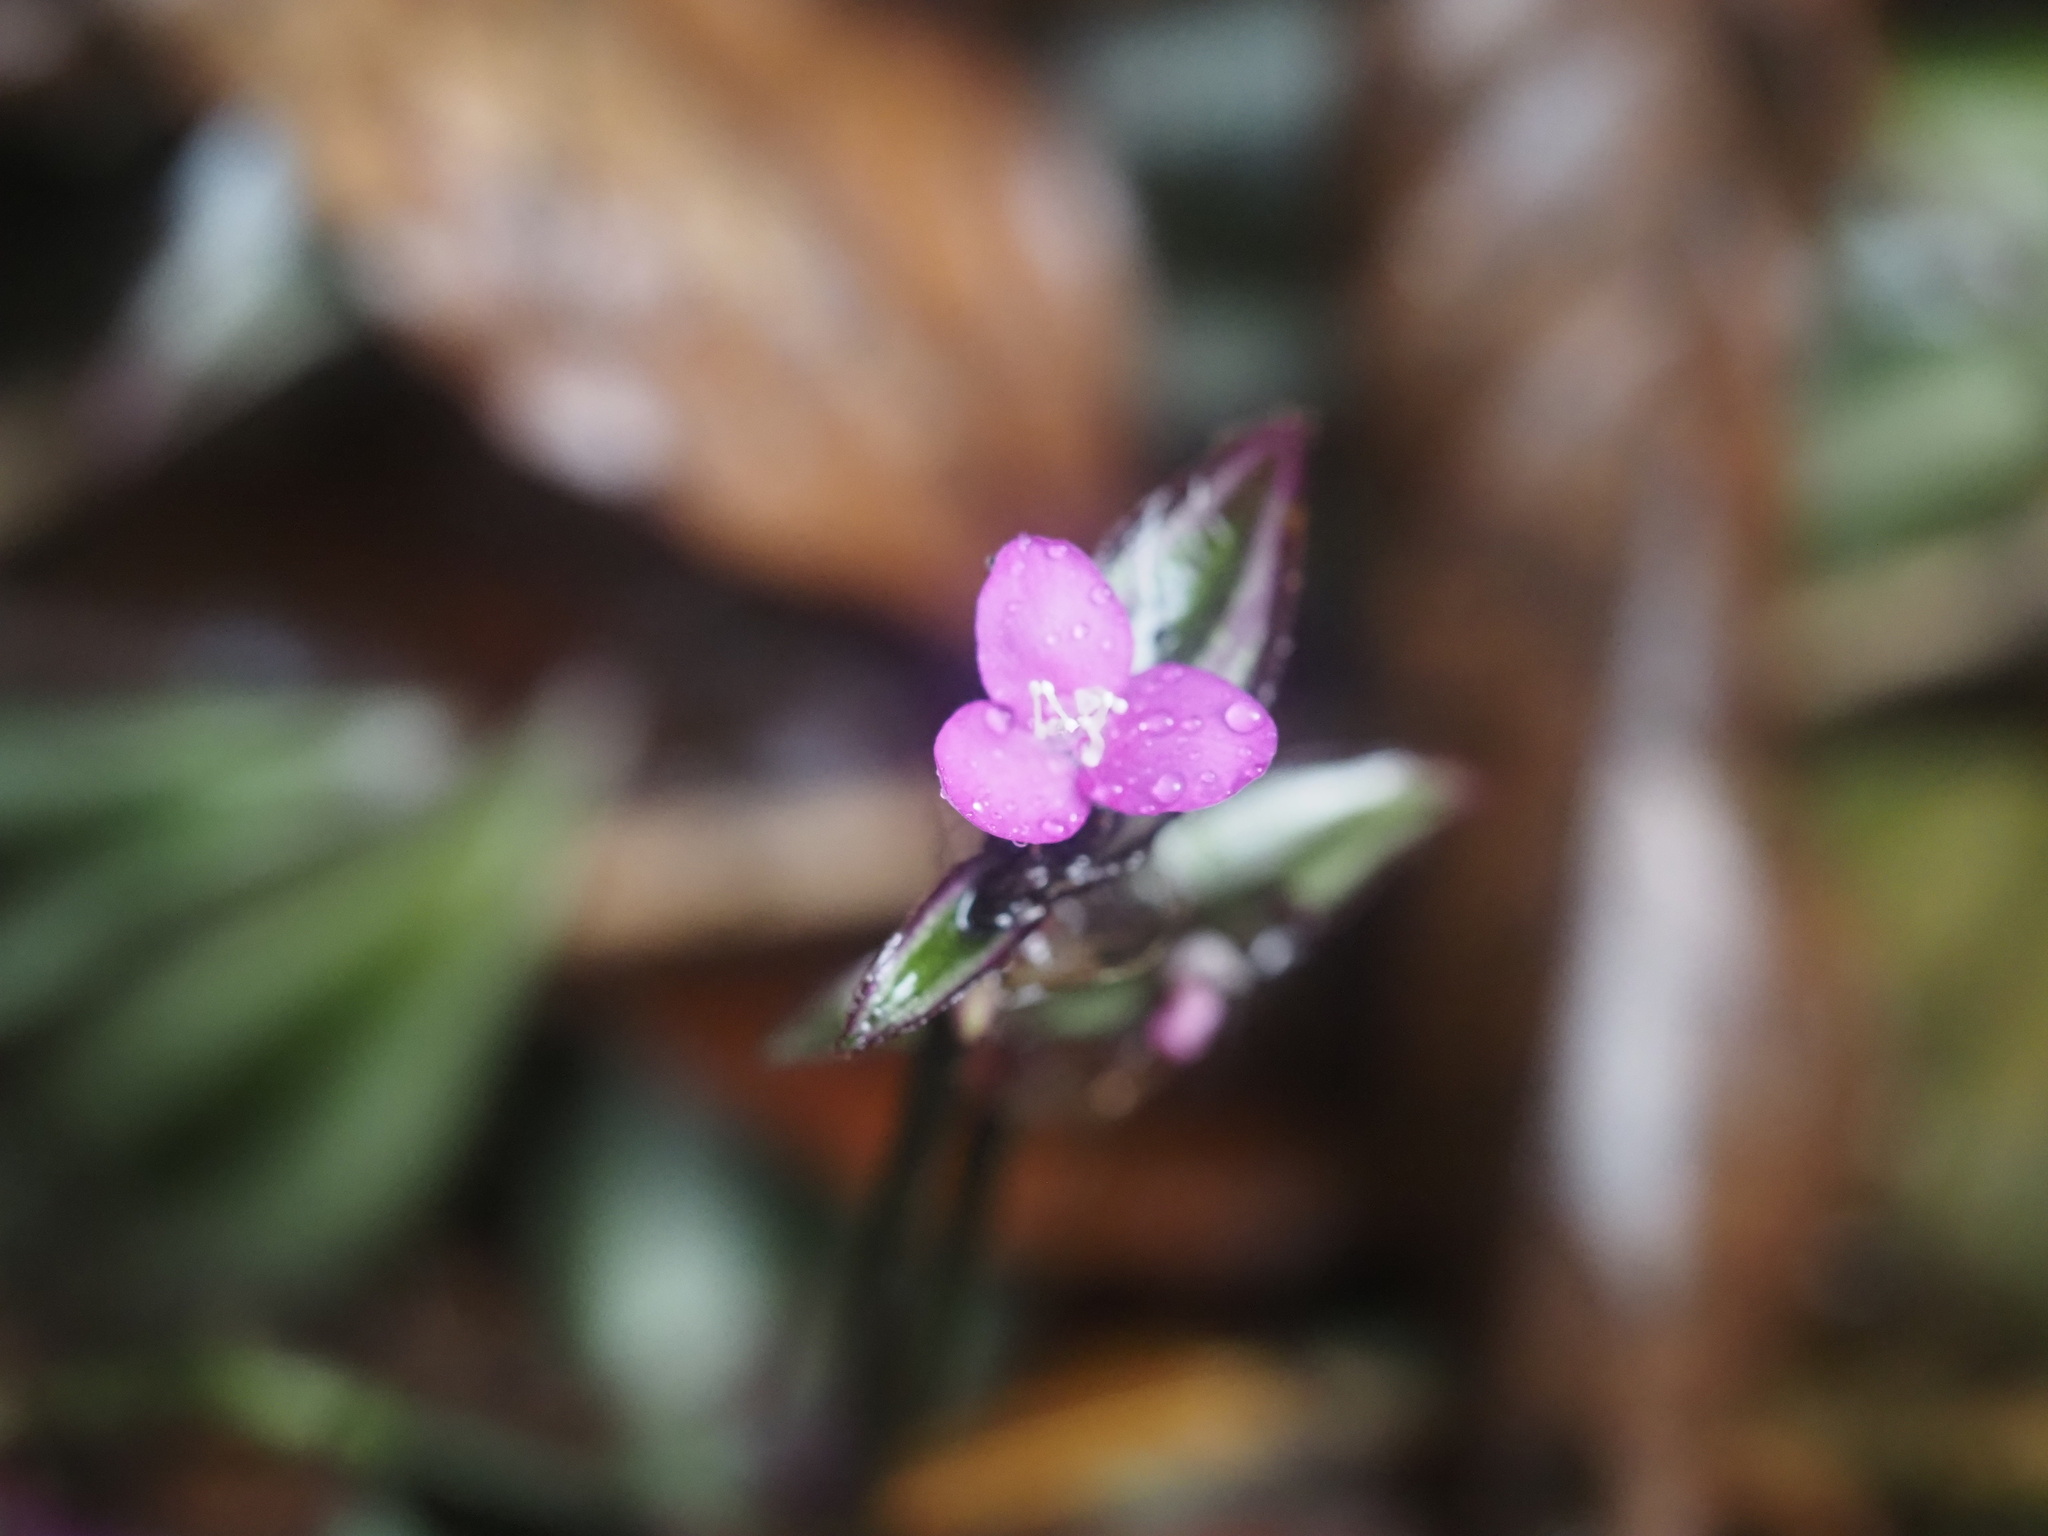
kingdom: Plantae
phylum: Tracheophyta
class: Liliopsida
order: Commelinales
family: Commelinaceae
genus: Tradescantia
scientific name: Tradescantia zebrina
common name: Inchplant
